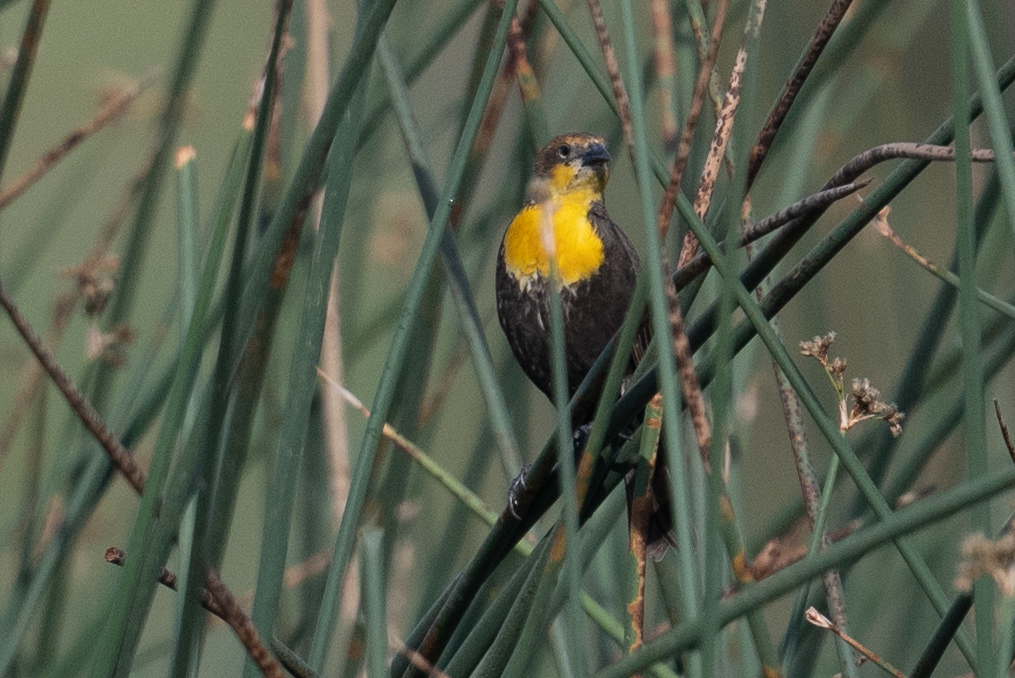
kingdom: Animalia
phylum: Chordata
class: Aves
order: Passeriformes
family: Icteridae
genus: Xanthocephalus
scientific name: Xanthocephalus xanthocephalus
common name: Yellow-headed blackbird
